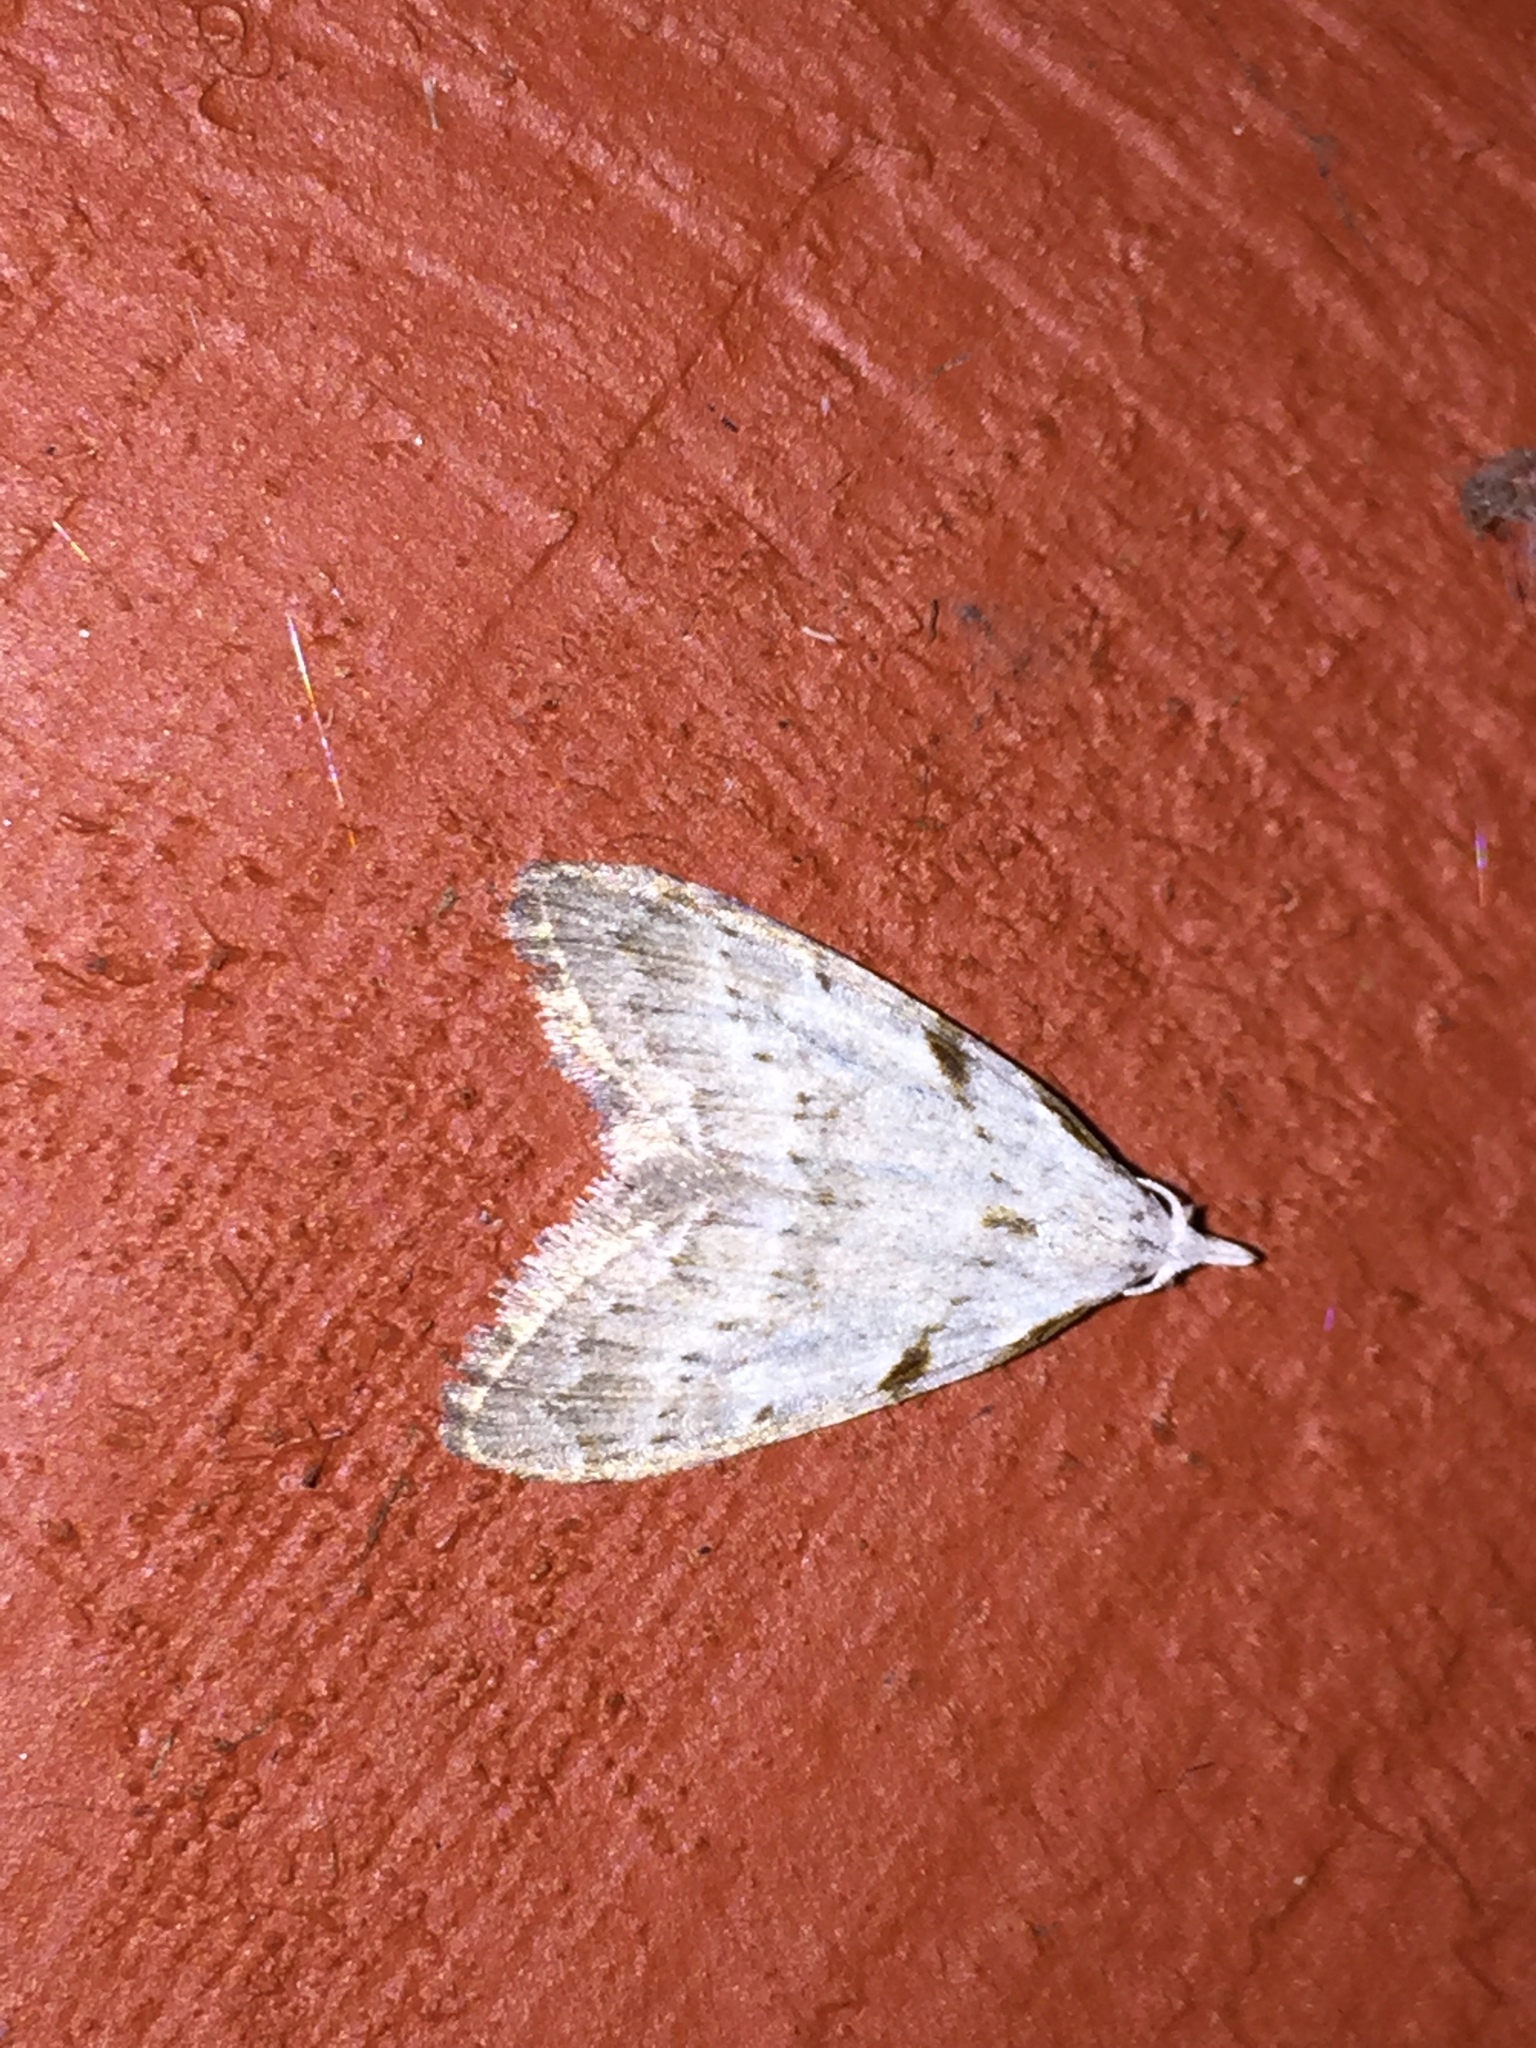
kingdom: Animalia
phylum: Arthropoda
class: Insecta
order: Lepidoptera
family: Nolidae
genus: Nola
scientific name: Nola minna
